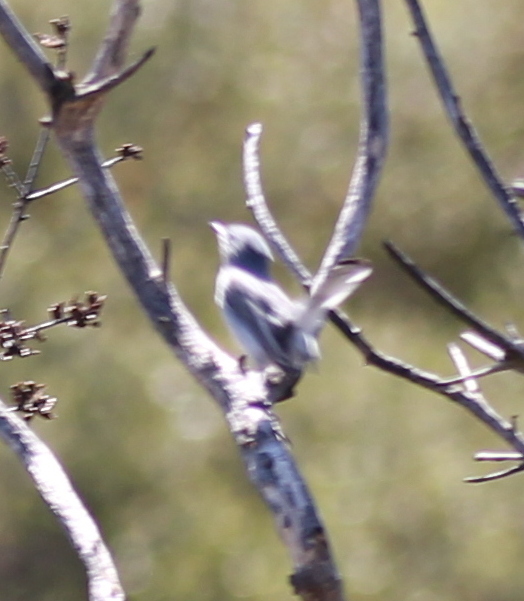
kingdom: Animalia
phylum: Chordata
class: Aves
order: Passeriformes
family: Polioptilidae
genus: Polioptila
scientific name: Polioptila caerulea
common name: Blue-gray gnatcatcher
